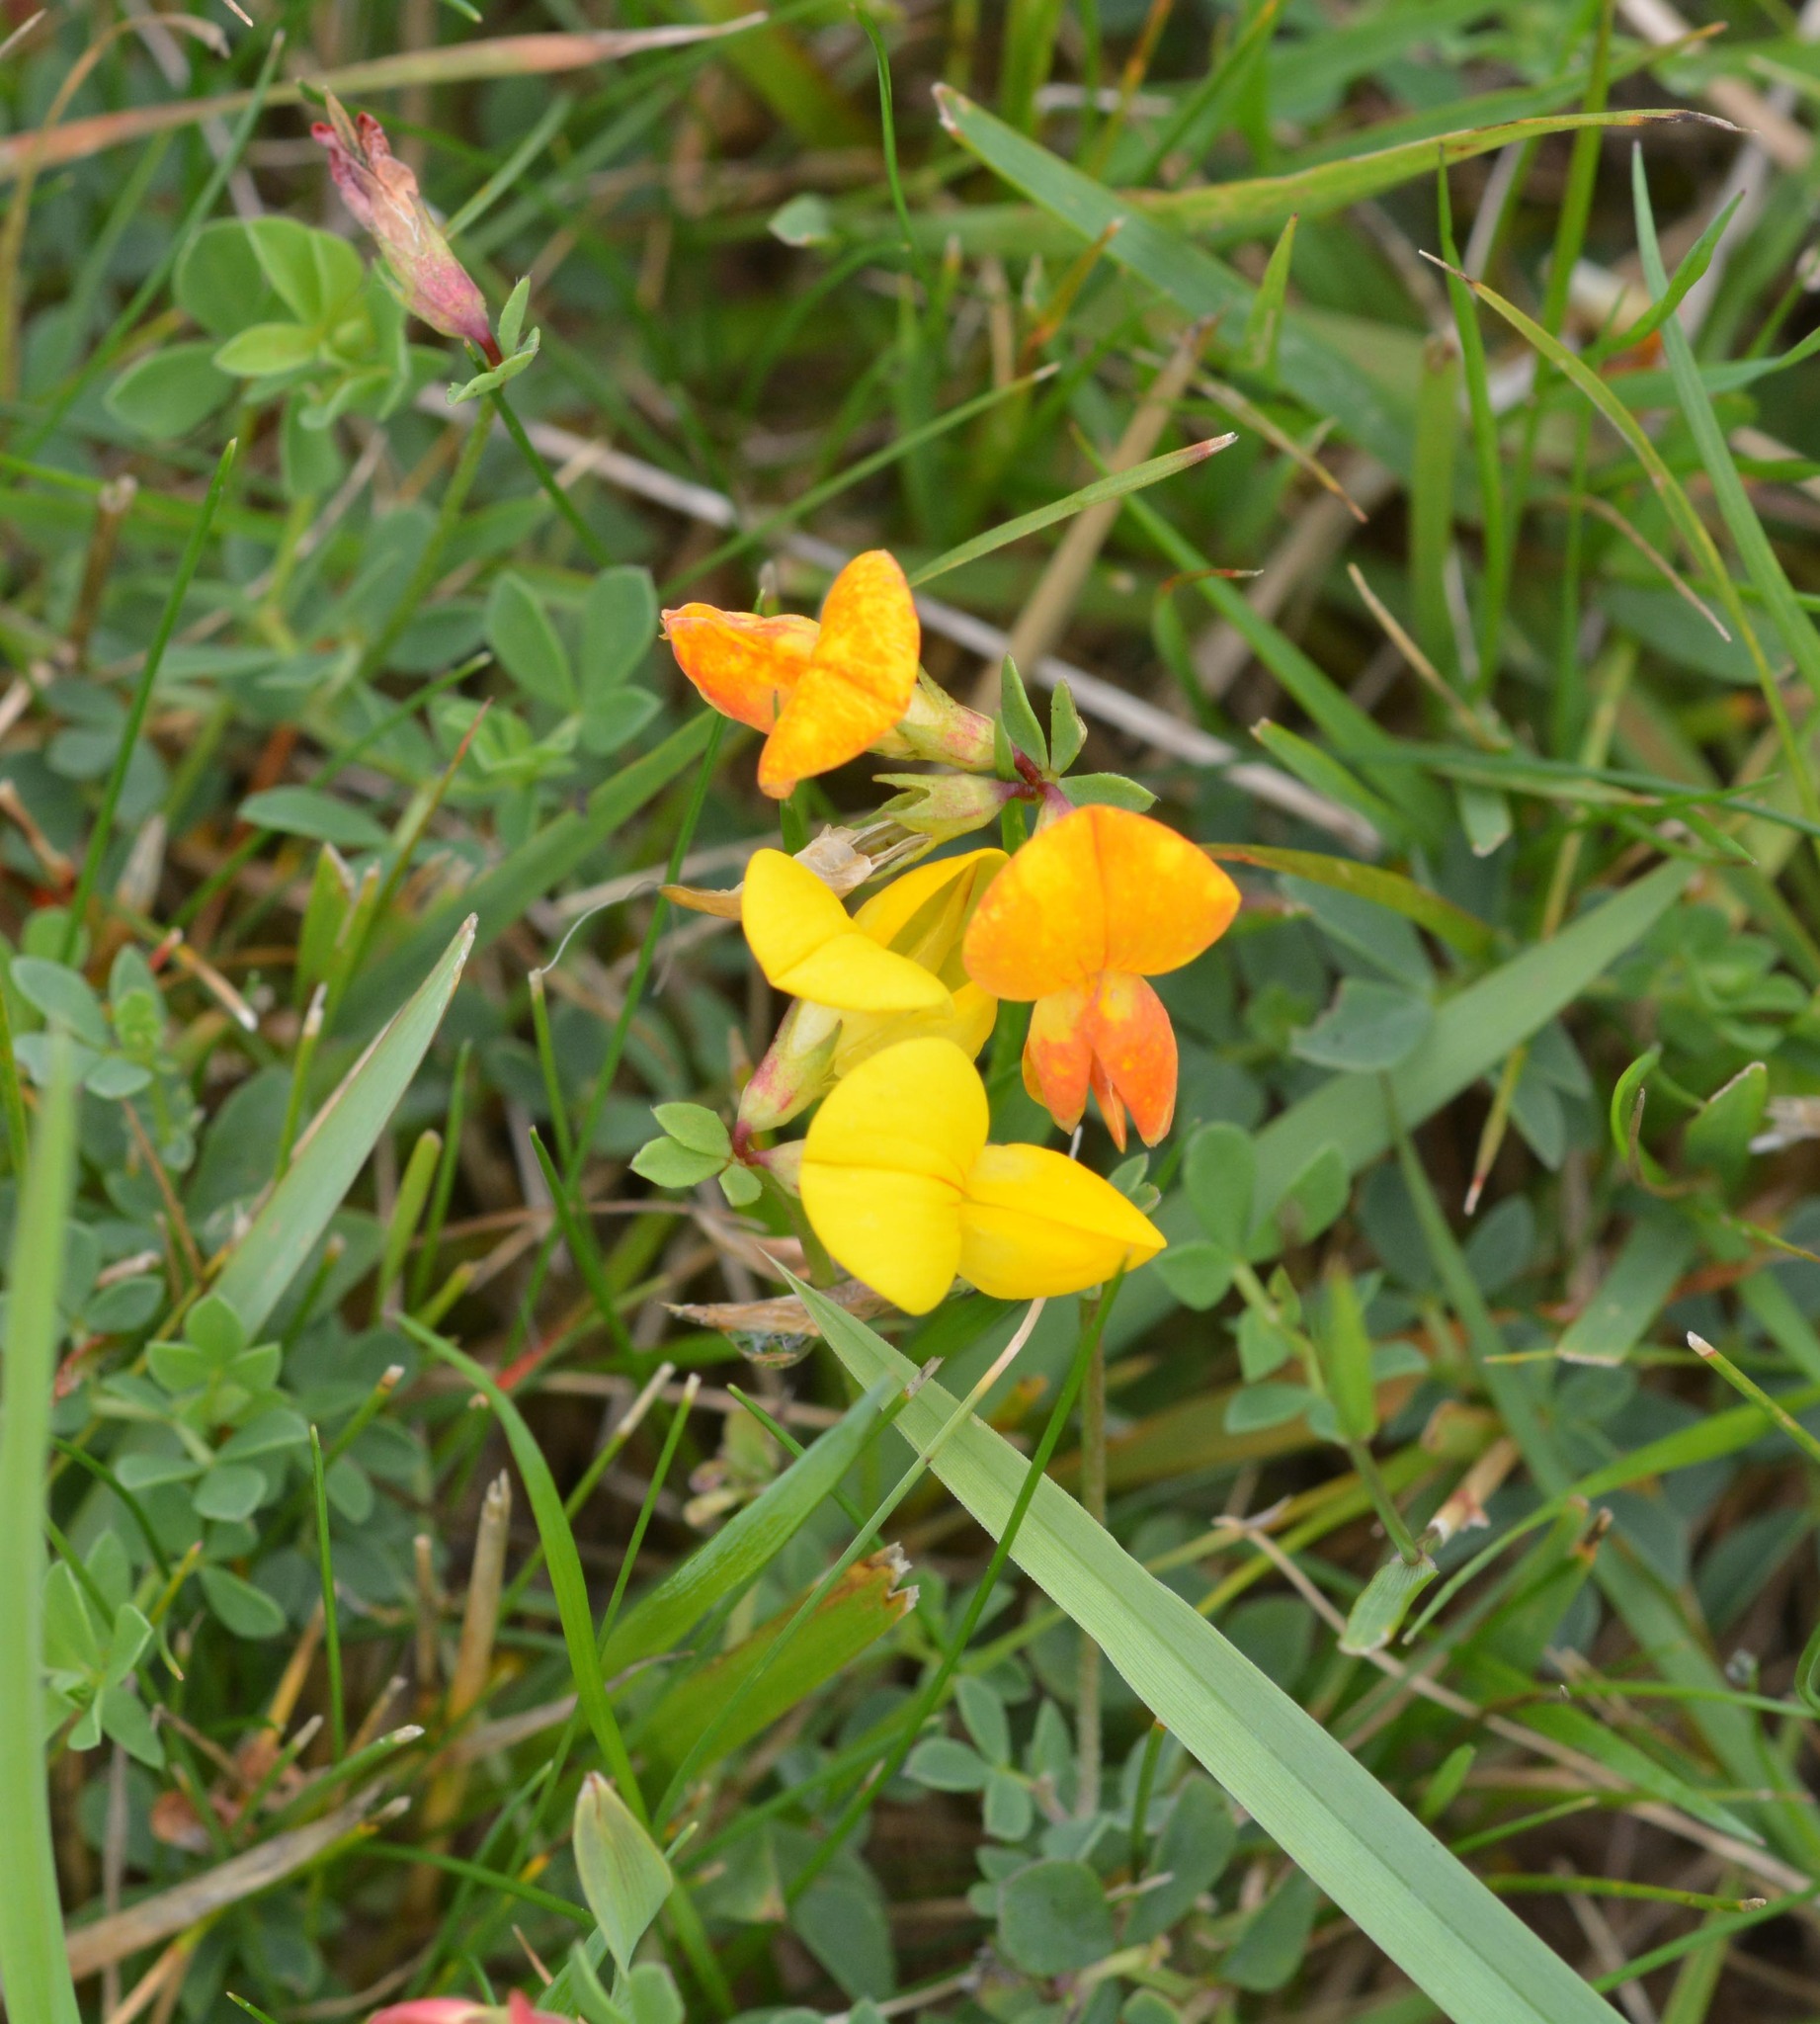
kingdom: Plantae
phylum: Tracheophyta
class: Magnoliopsida
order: Fabales
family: Fabaceae
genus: Lotus
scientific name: Lotus corniculatus
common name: Common bird's-foot-trefoil
